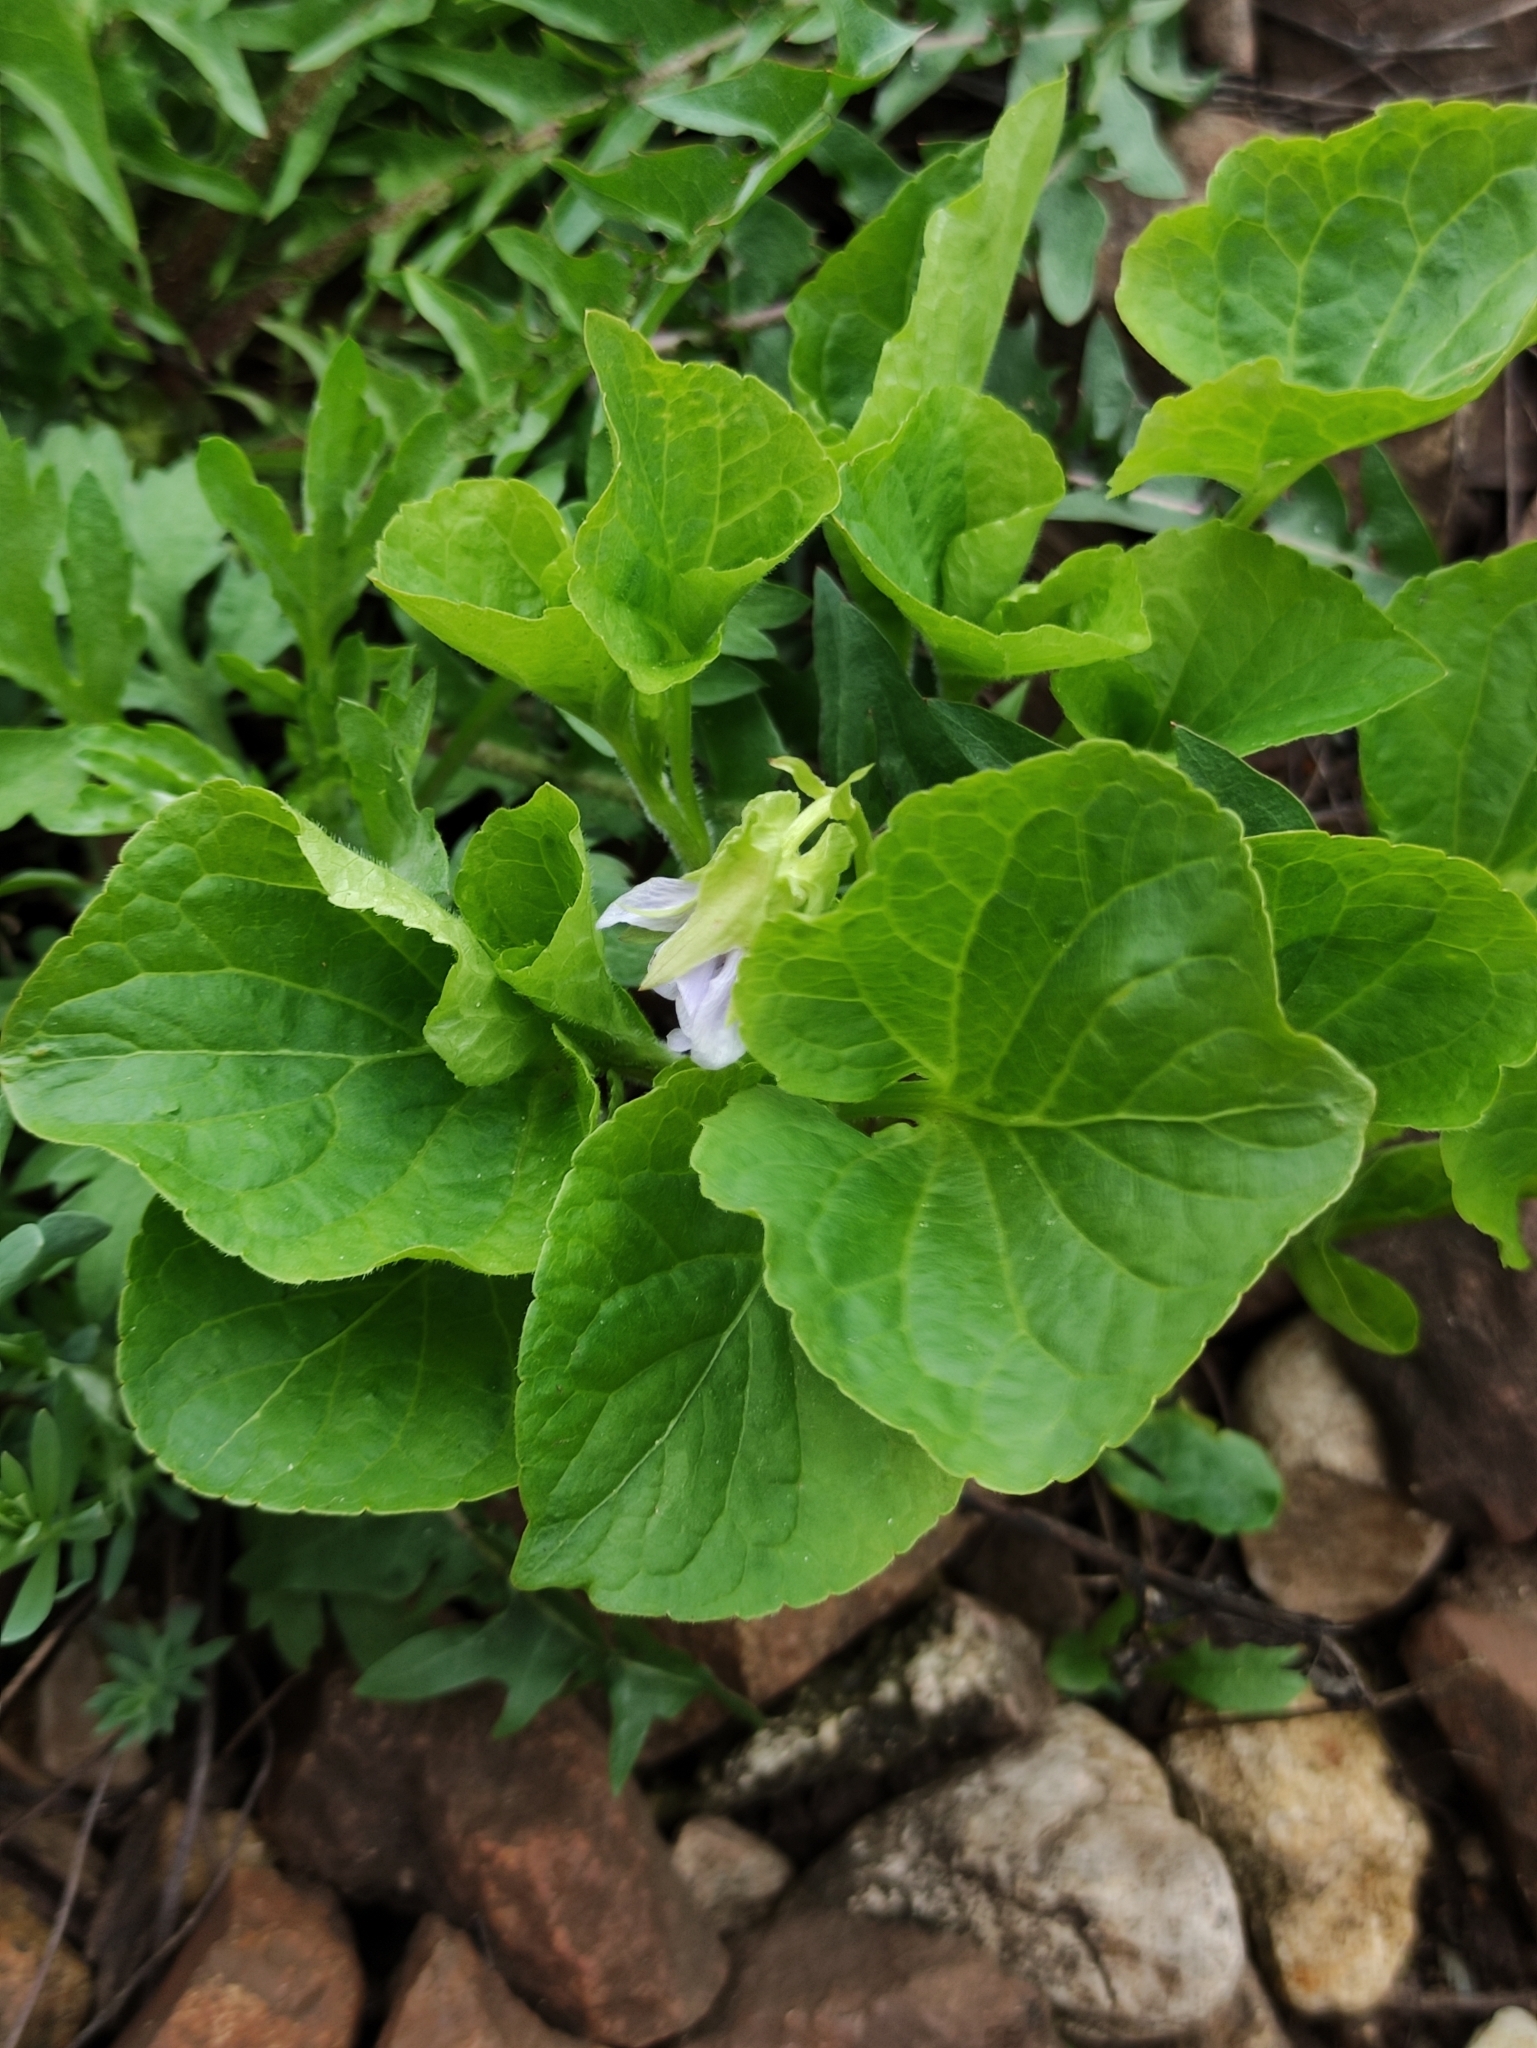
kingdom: Plantae
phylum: Tracheophyta
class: Magnoliopsida
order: Malpighiales
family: Violaceae
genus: Viola
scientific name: Viola mirabilis
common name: Wonder violet
